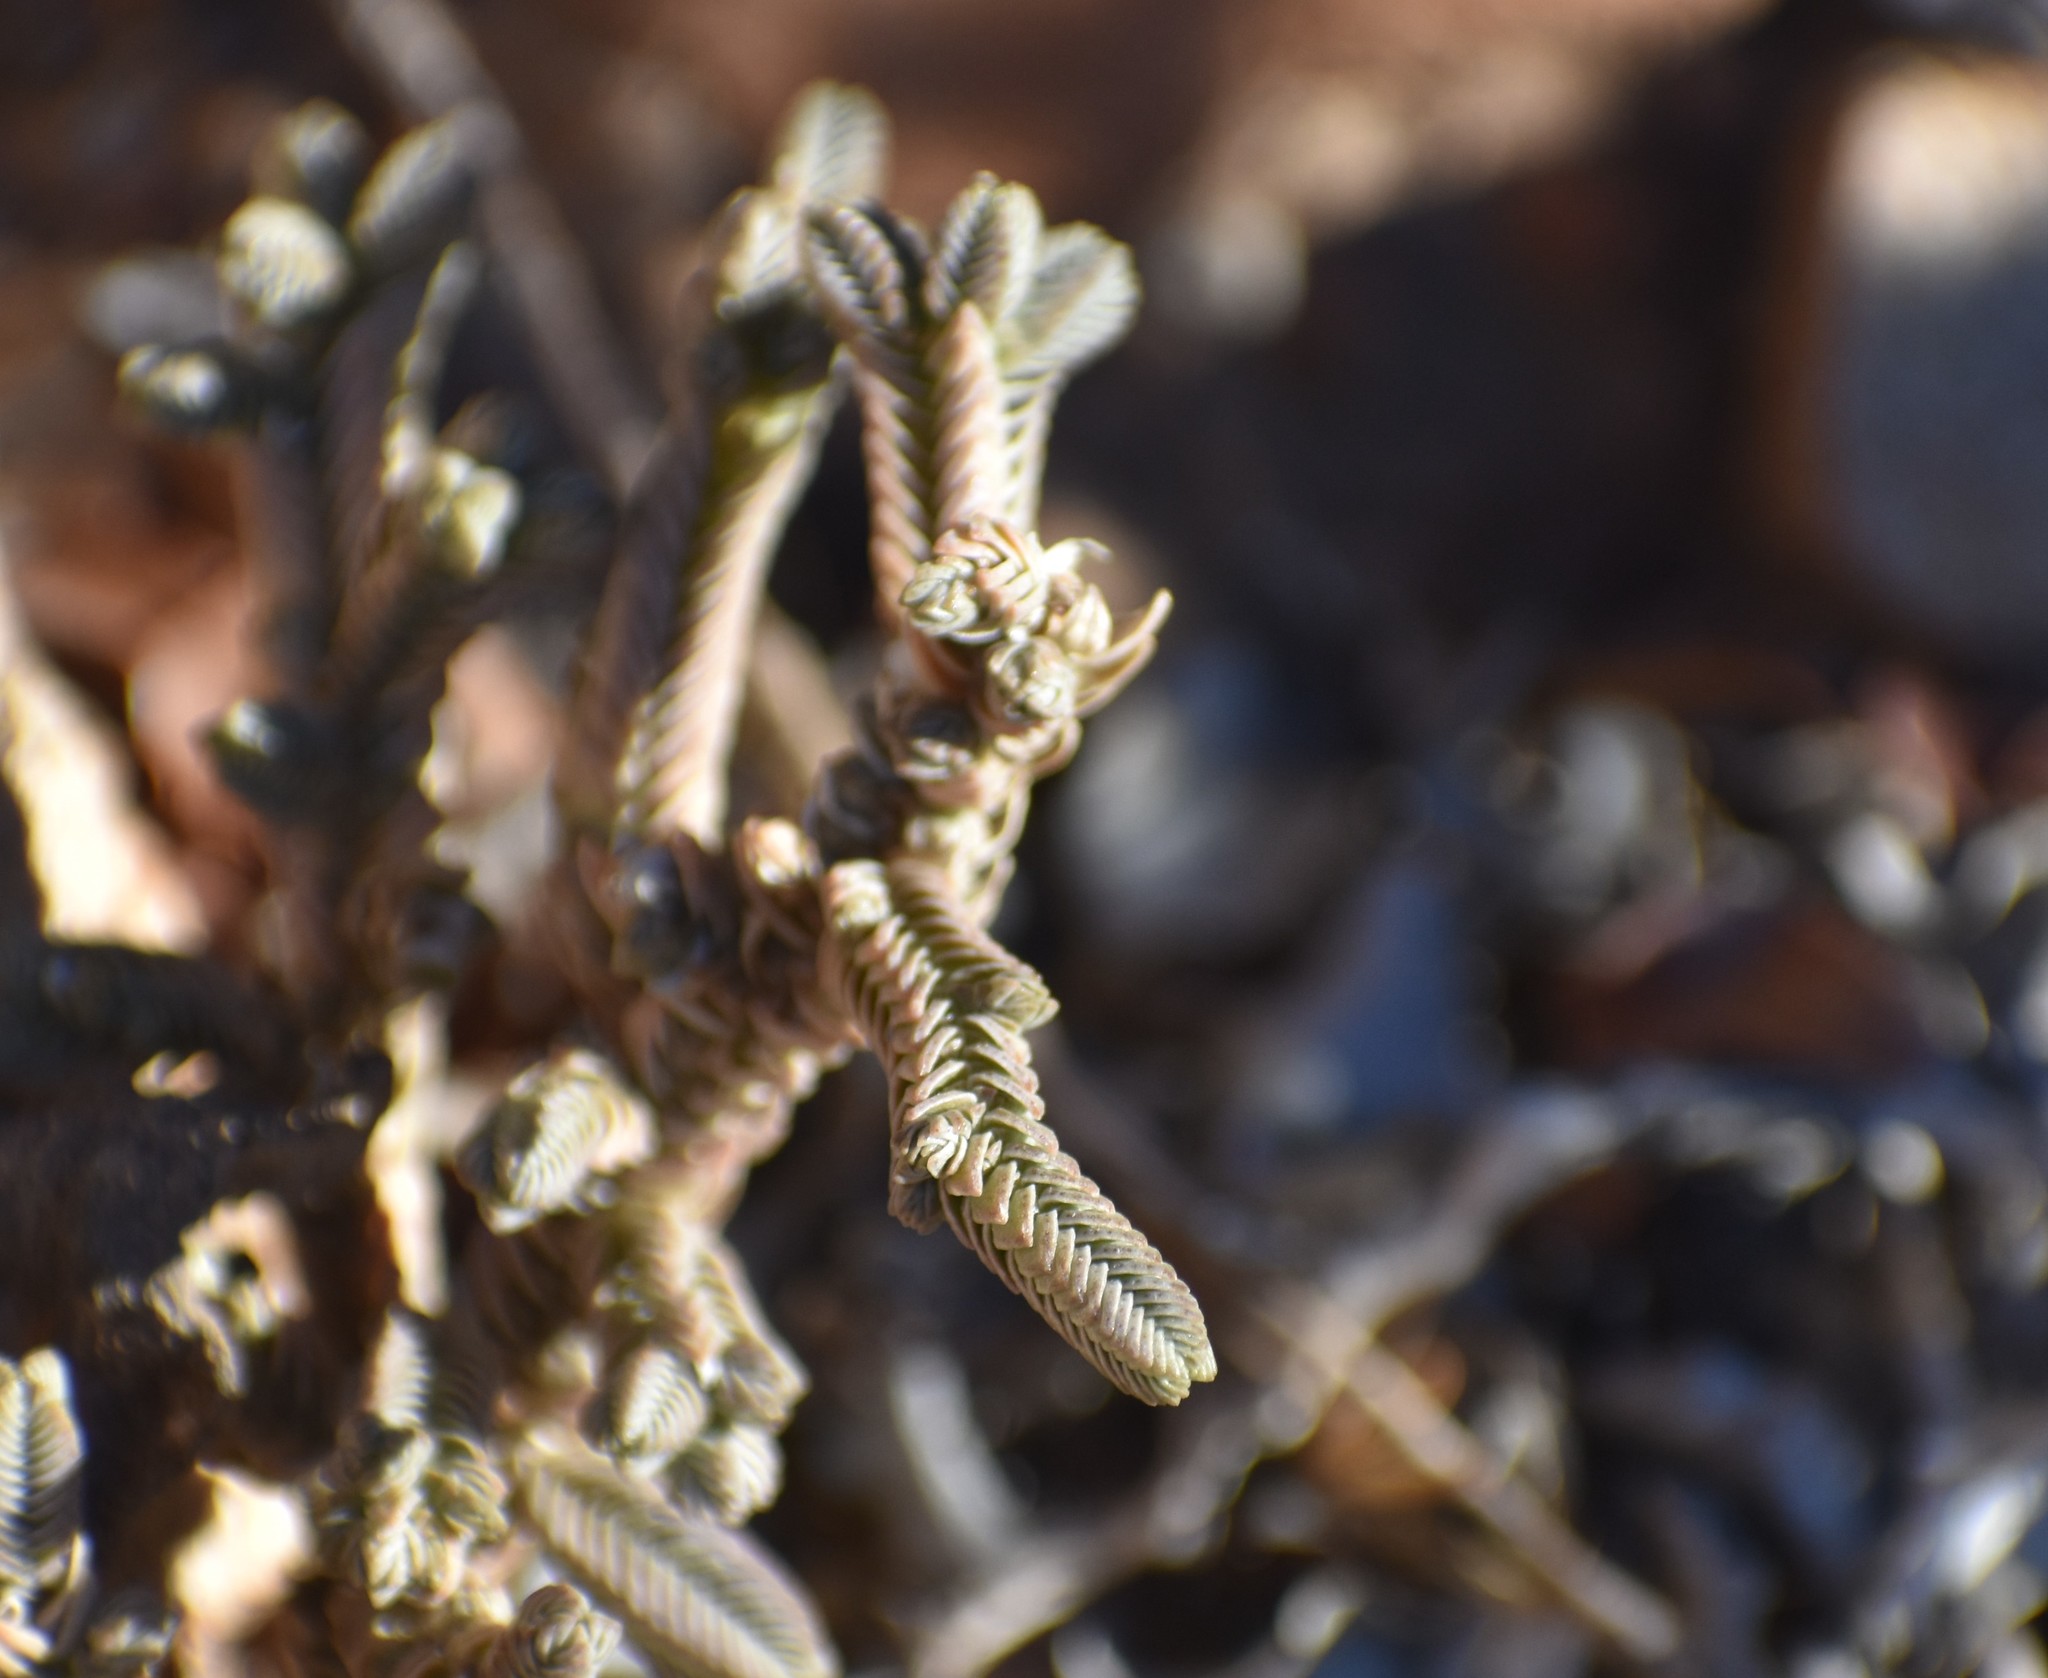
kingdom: Plantae
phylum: Tracheophyta
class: Magnoliopsida
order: Saxifragales
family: Crassulaceae
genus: Crassula
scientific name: Crassula muscosa
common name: Toy-cypress
